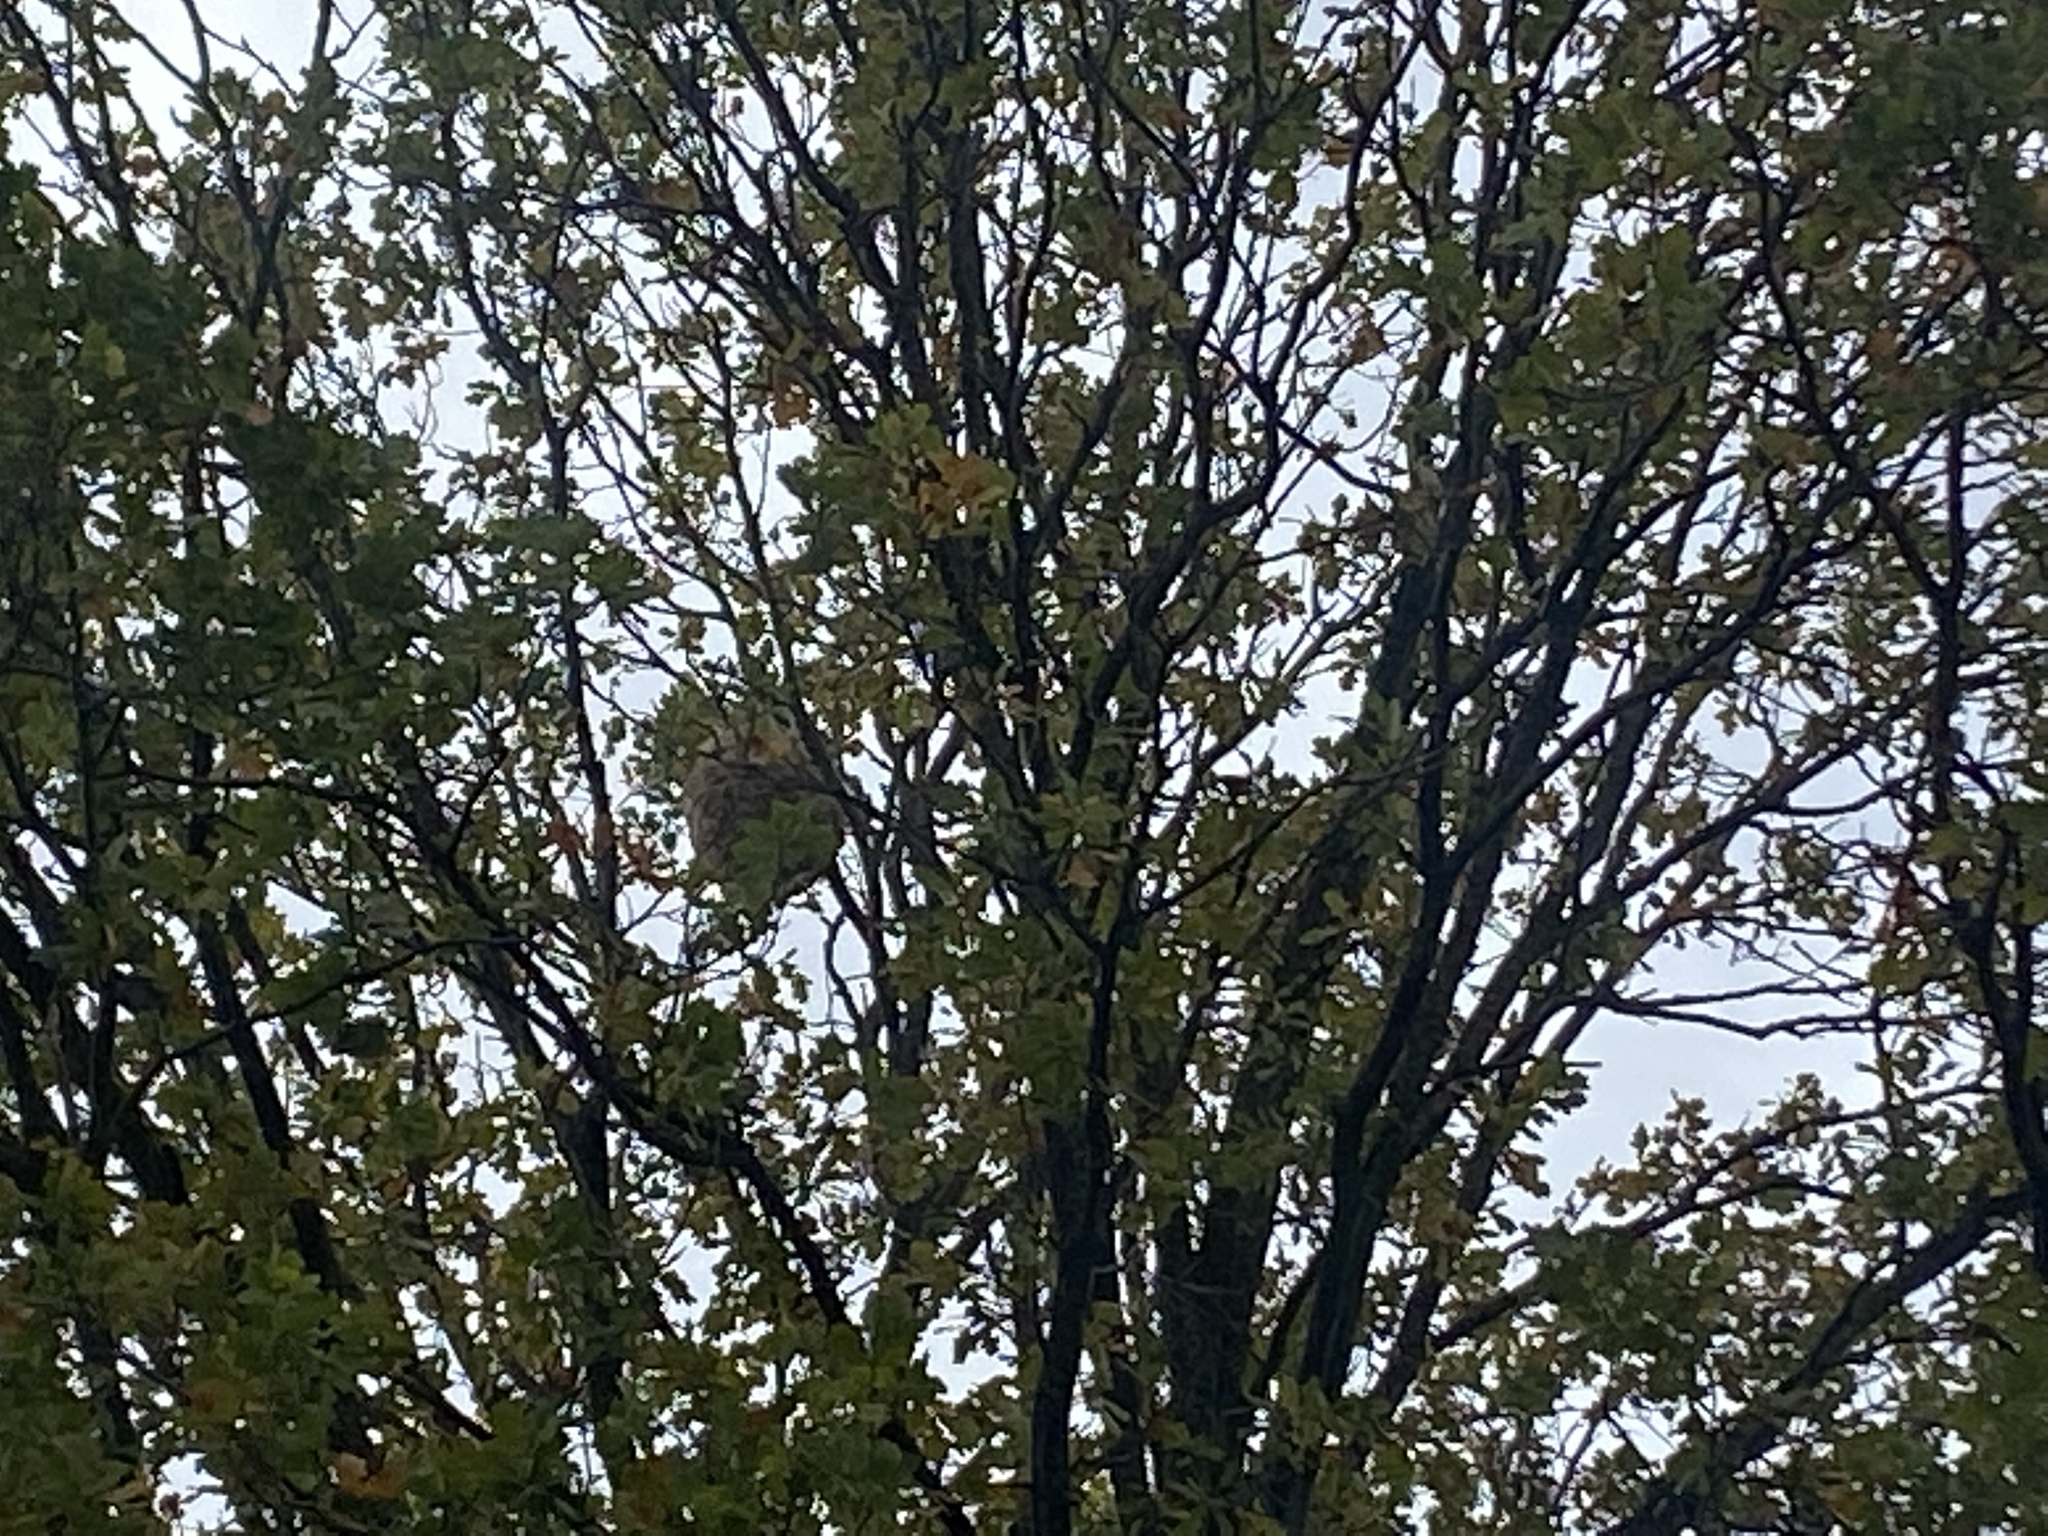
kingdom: Animalia
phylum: Arthropoda
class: Insecta
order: Hymenoptera
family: Vespidae
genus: Vespa
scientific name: Vespa velutina
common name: Asian hornet
